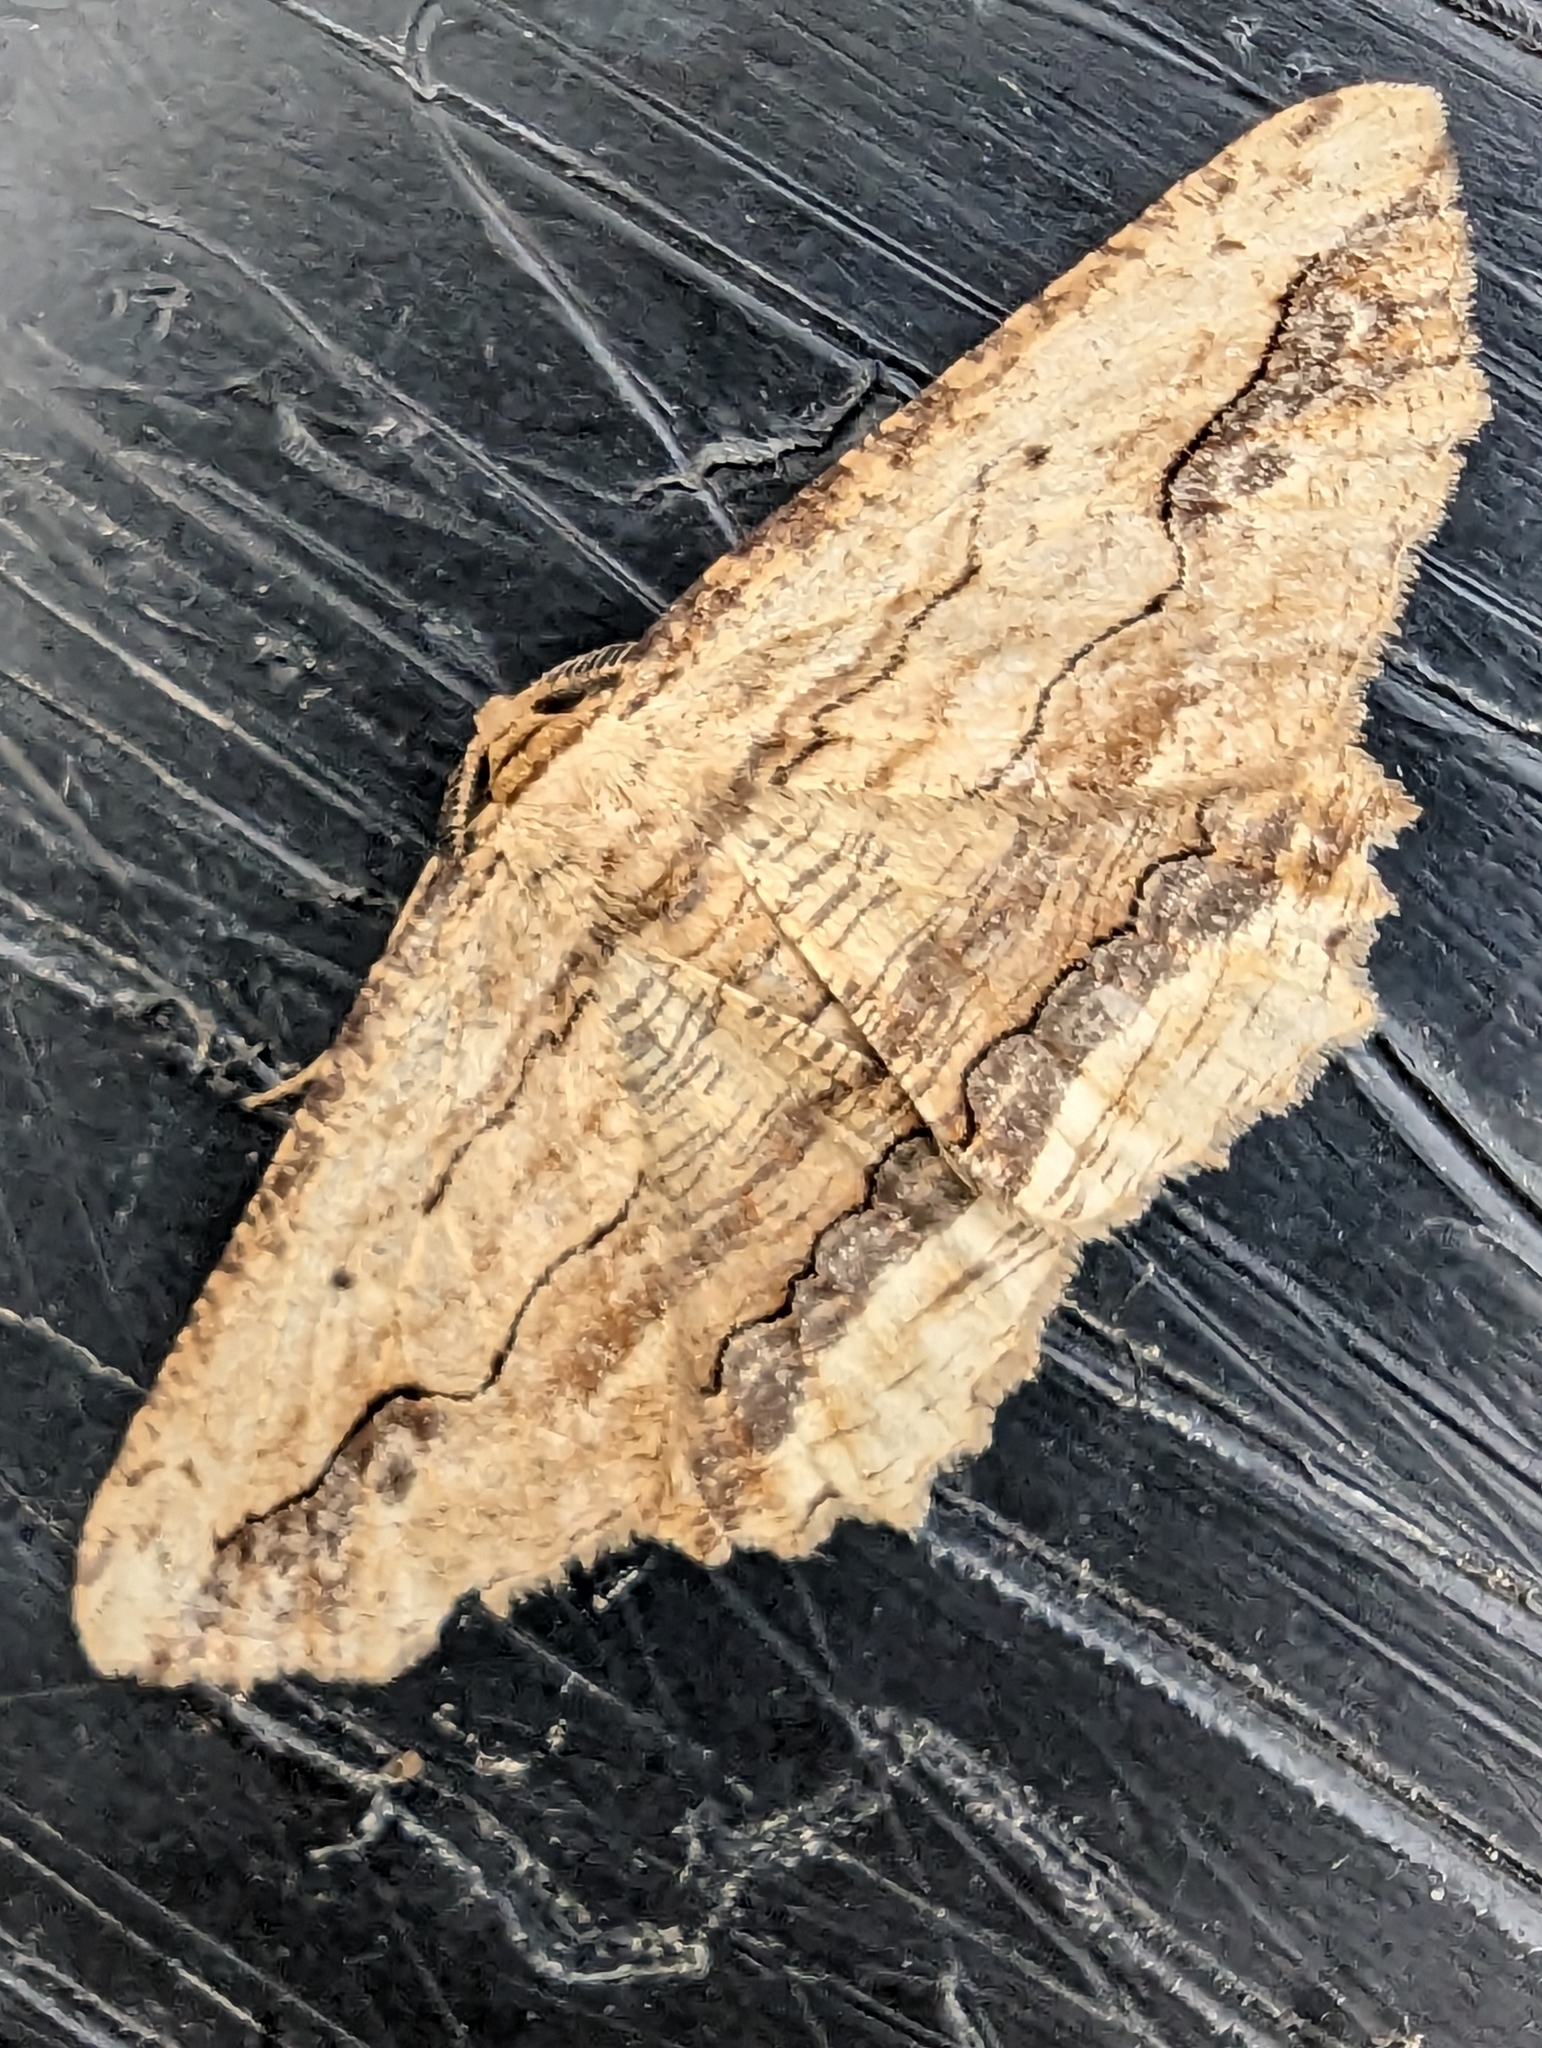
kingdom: Animalia
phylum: Arthropoda
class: Insecta
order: Lepidoptera
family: Geometridae
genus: Menophra
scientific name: Menophra abruptaria
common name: Waved umber
